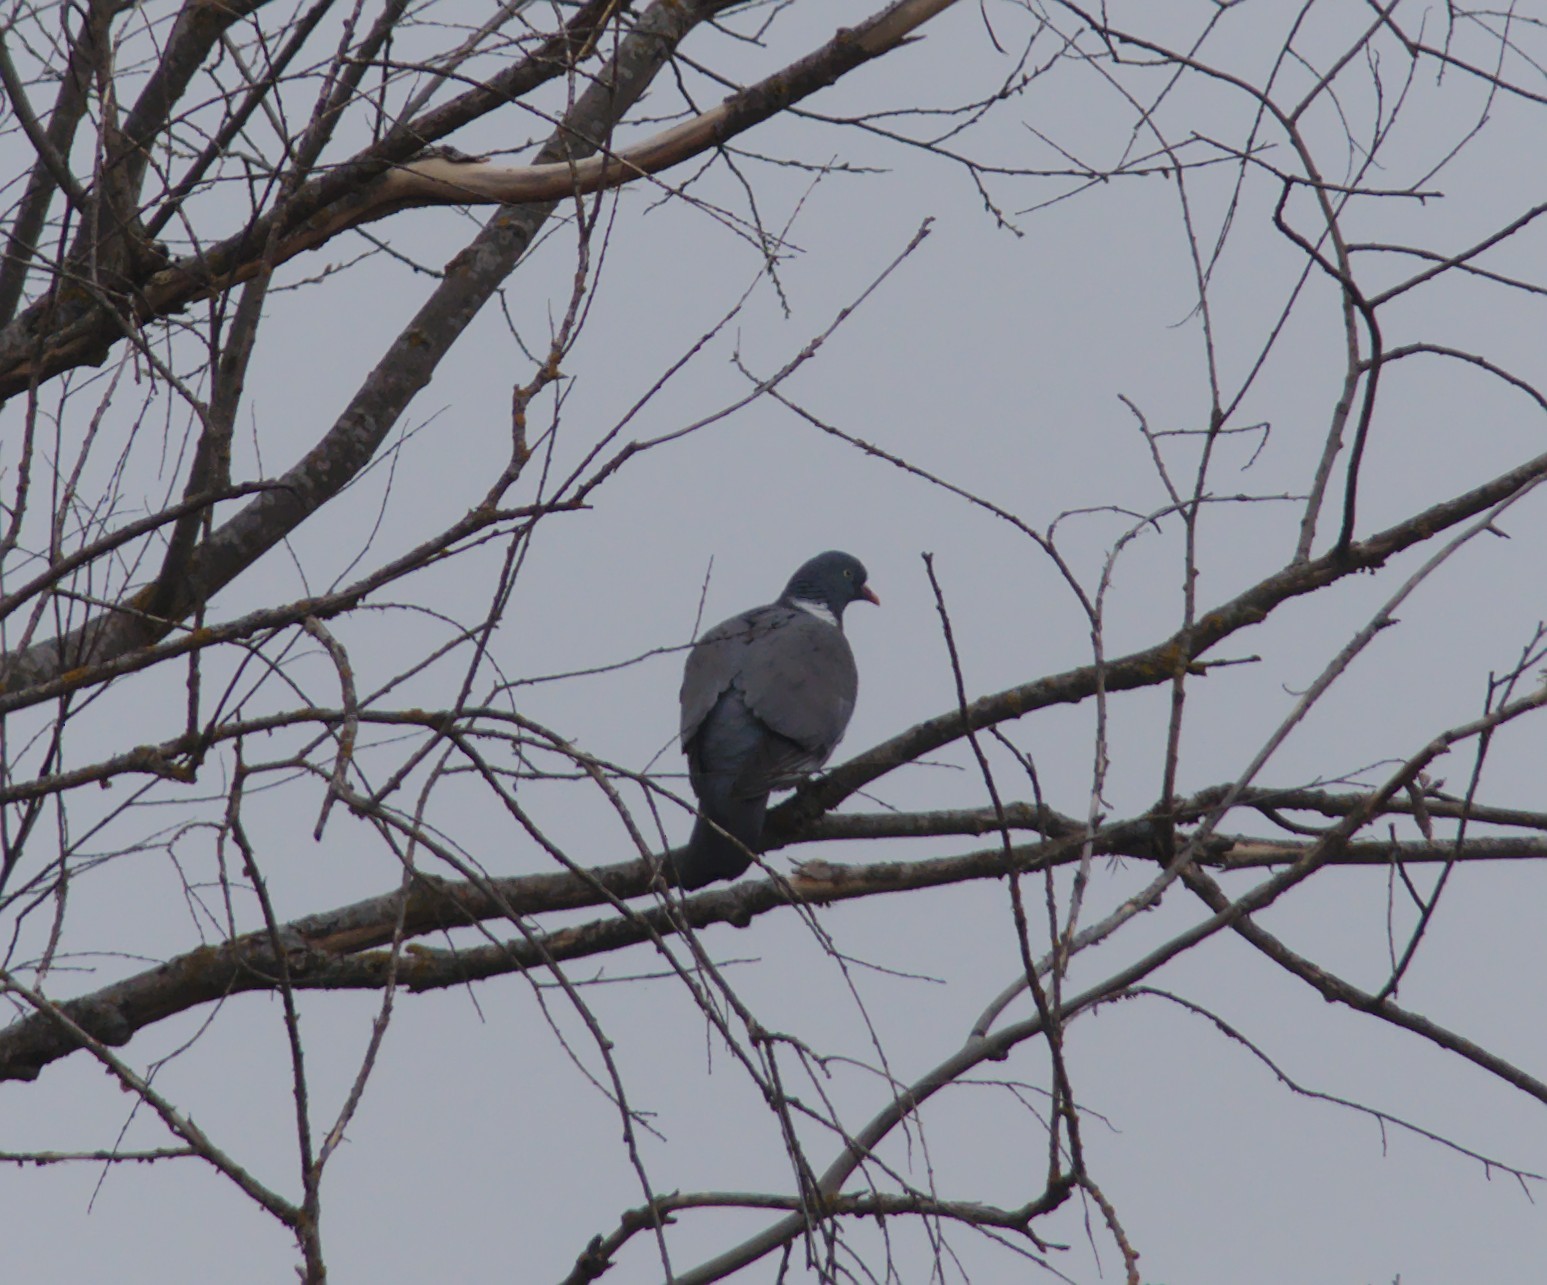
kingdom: Animalia
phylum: Chordata
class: Aves
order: Columbiformes
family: Columbidae
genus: Columba
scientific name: Columba palumbus
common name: Common wood pigeon
